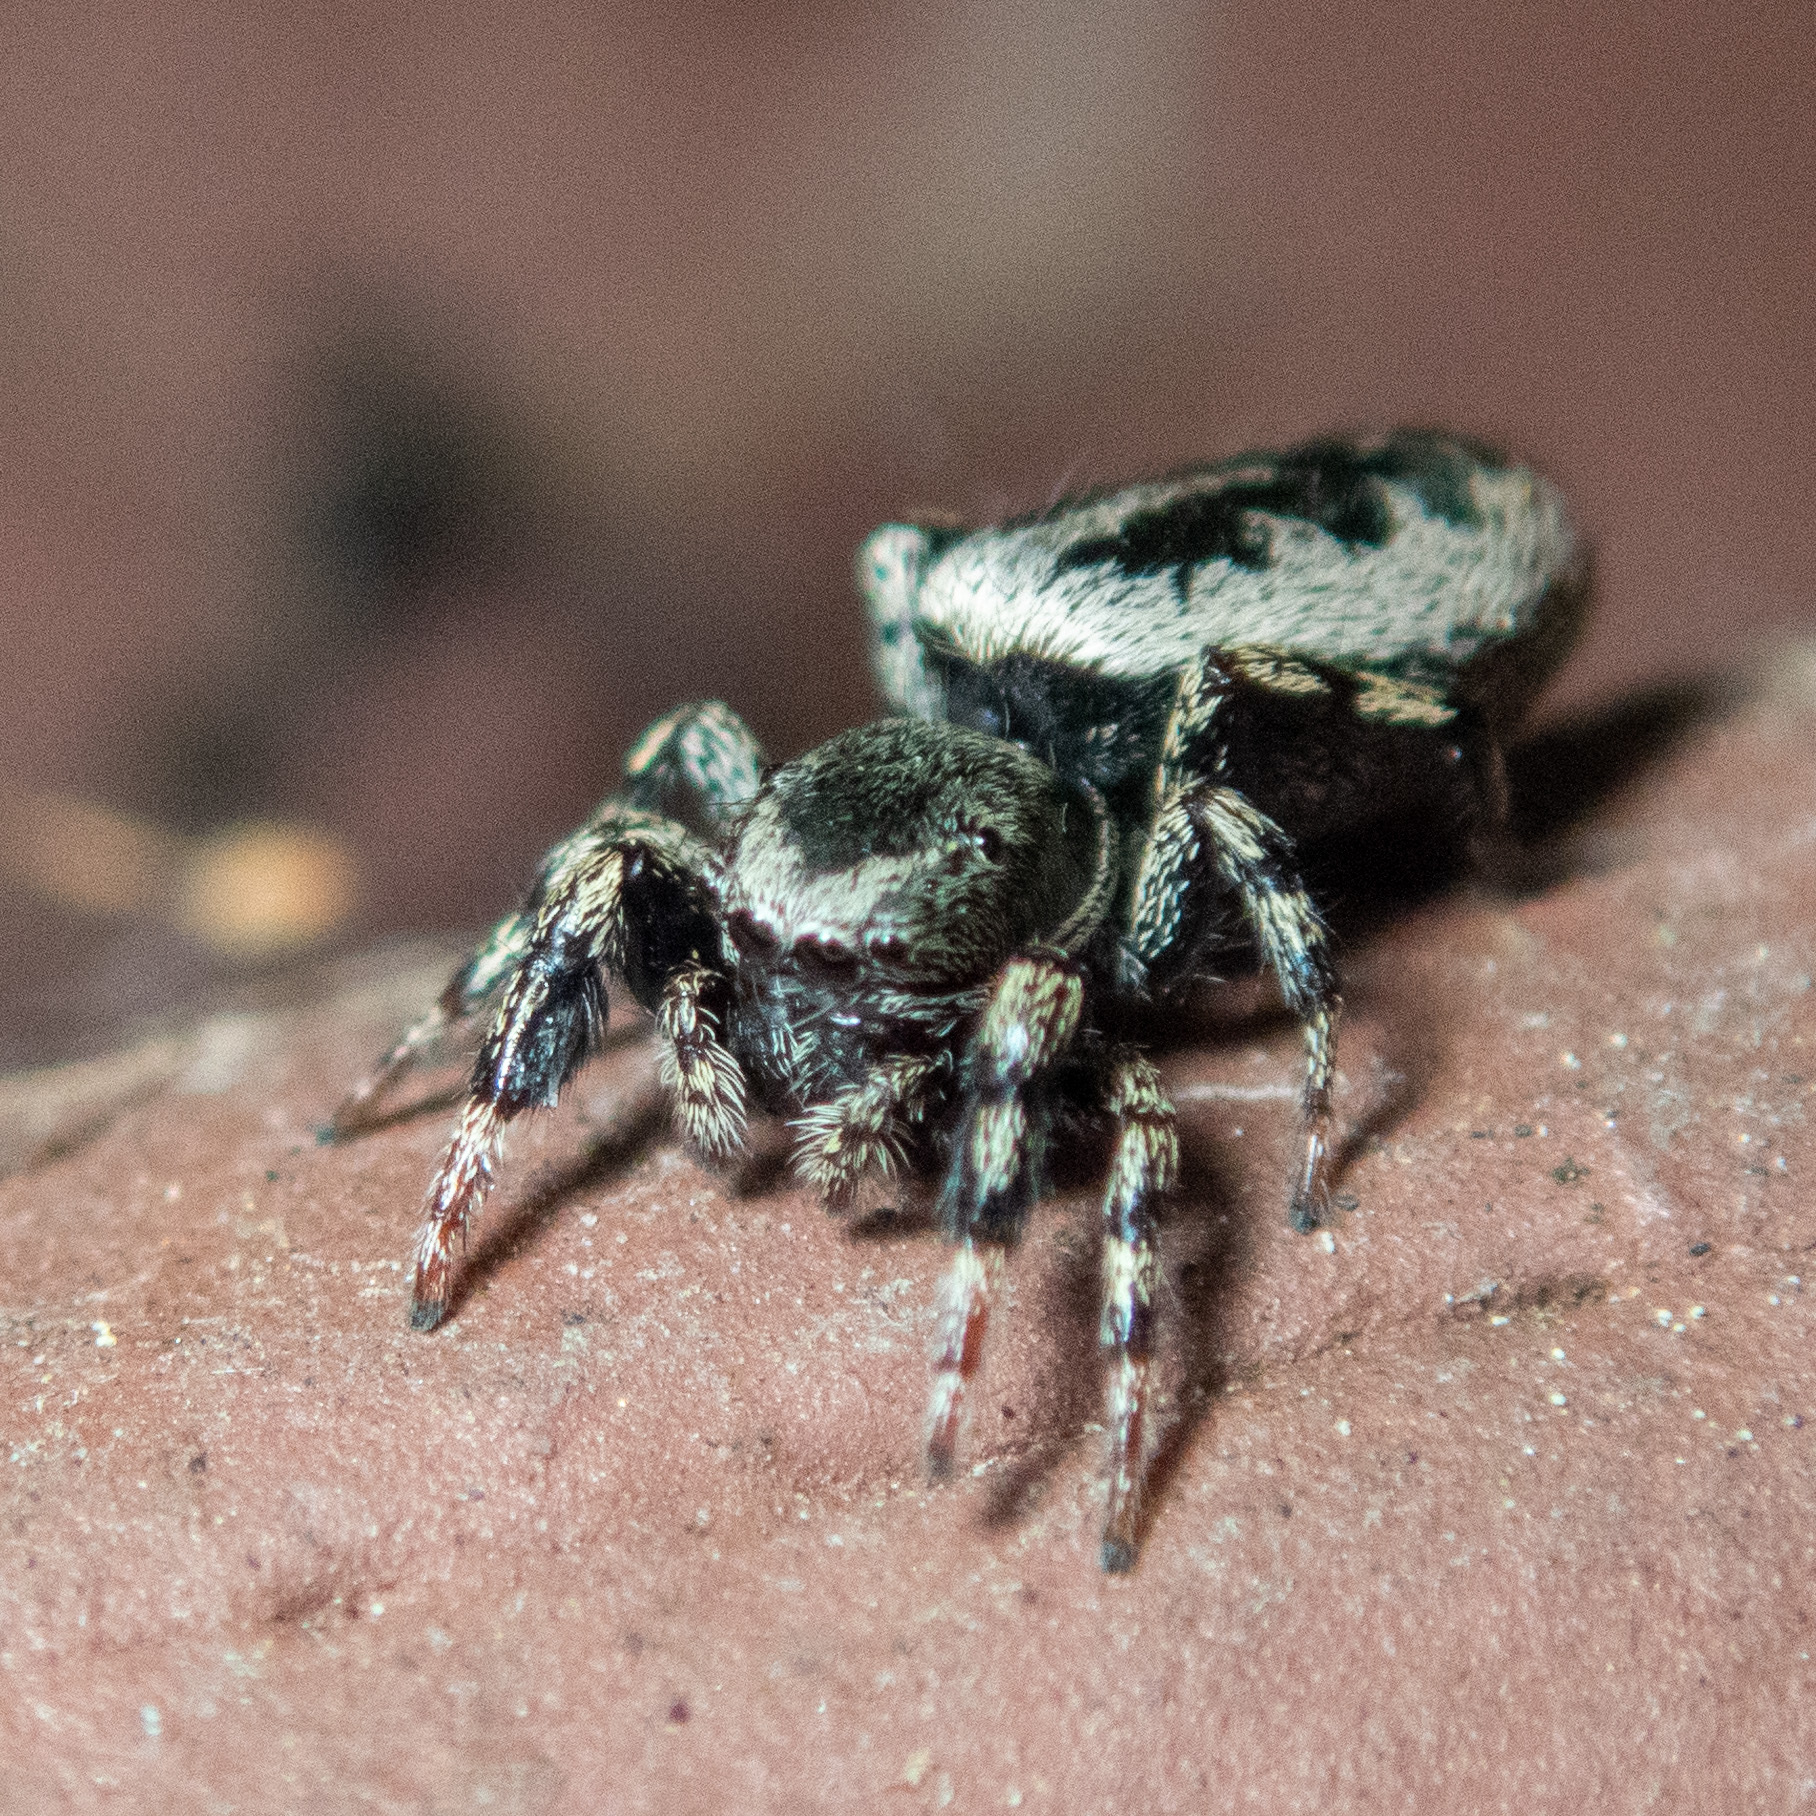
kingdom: Animalia
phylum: Arthropoda
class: Arachnida
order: Araneae
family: Salticidae
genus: Tutelina
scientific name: Tutelina harti
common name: Hart's jumping spider
